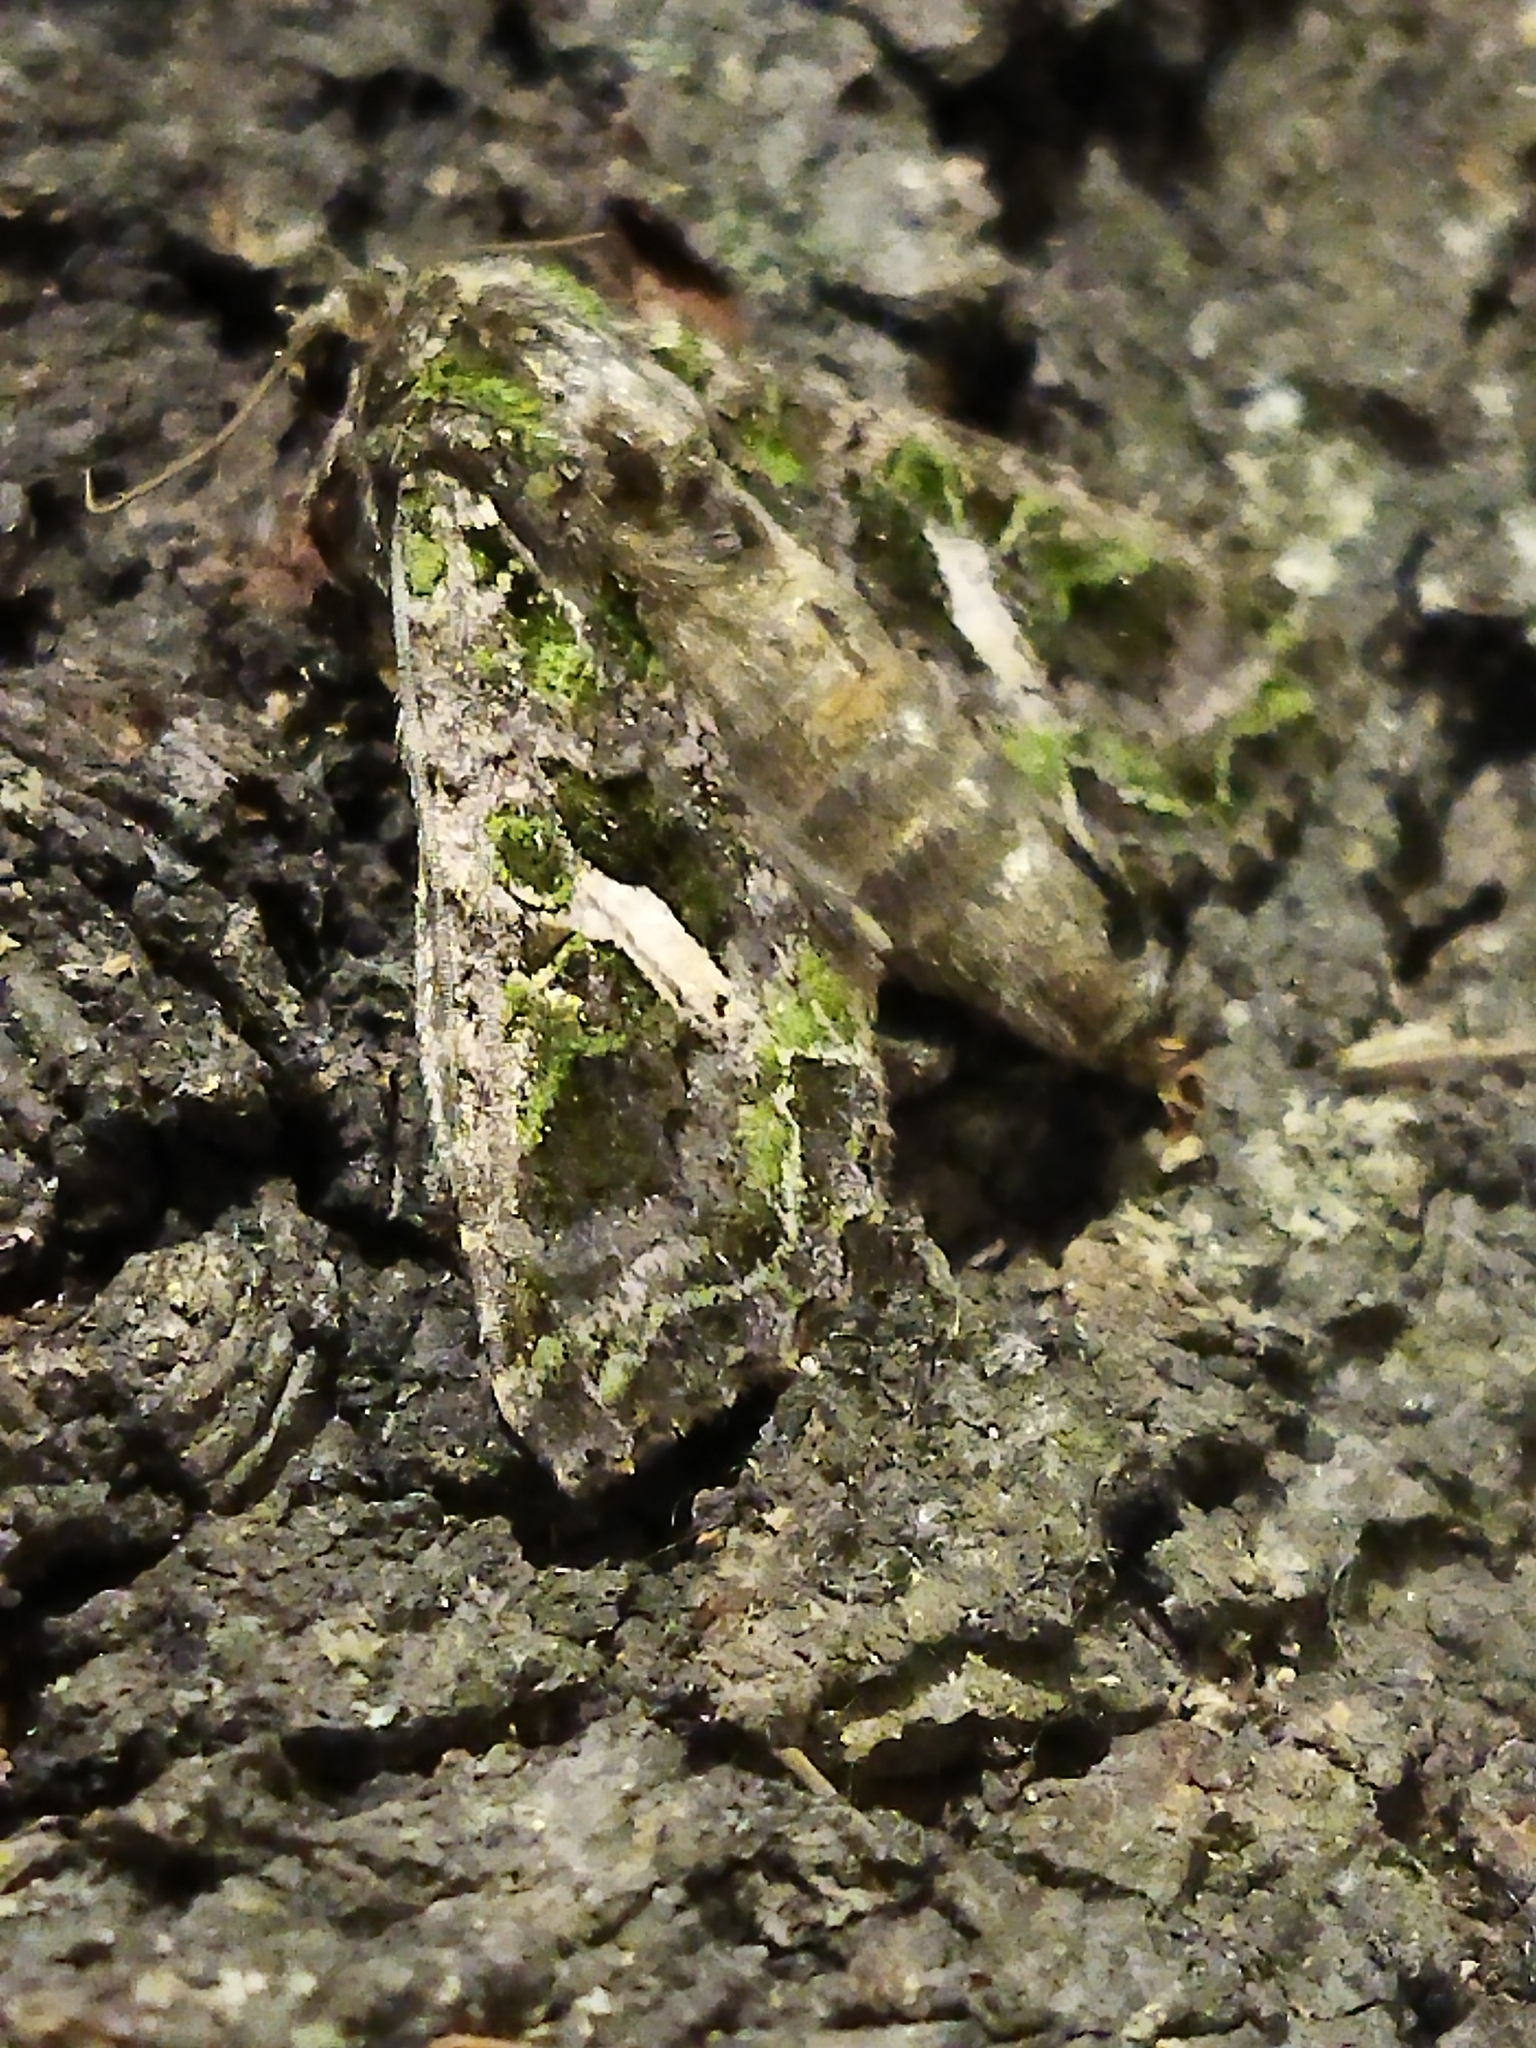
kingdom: Animalia
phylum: Arthropoda
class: Insecta
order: Lepidoptera
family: Noctuidae
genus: Trachea
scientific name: Trachea atriplicis
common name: Orache moth
